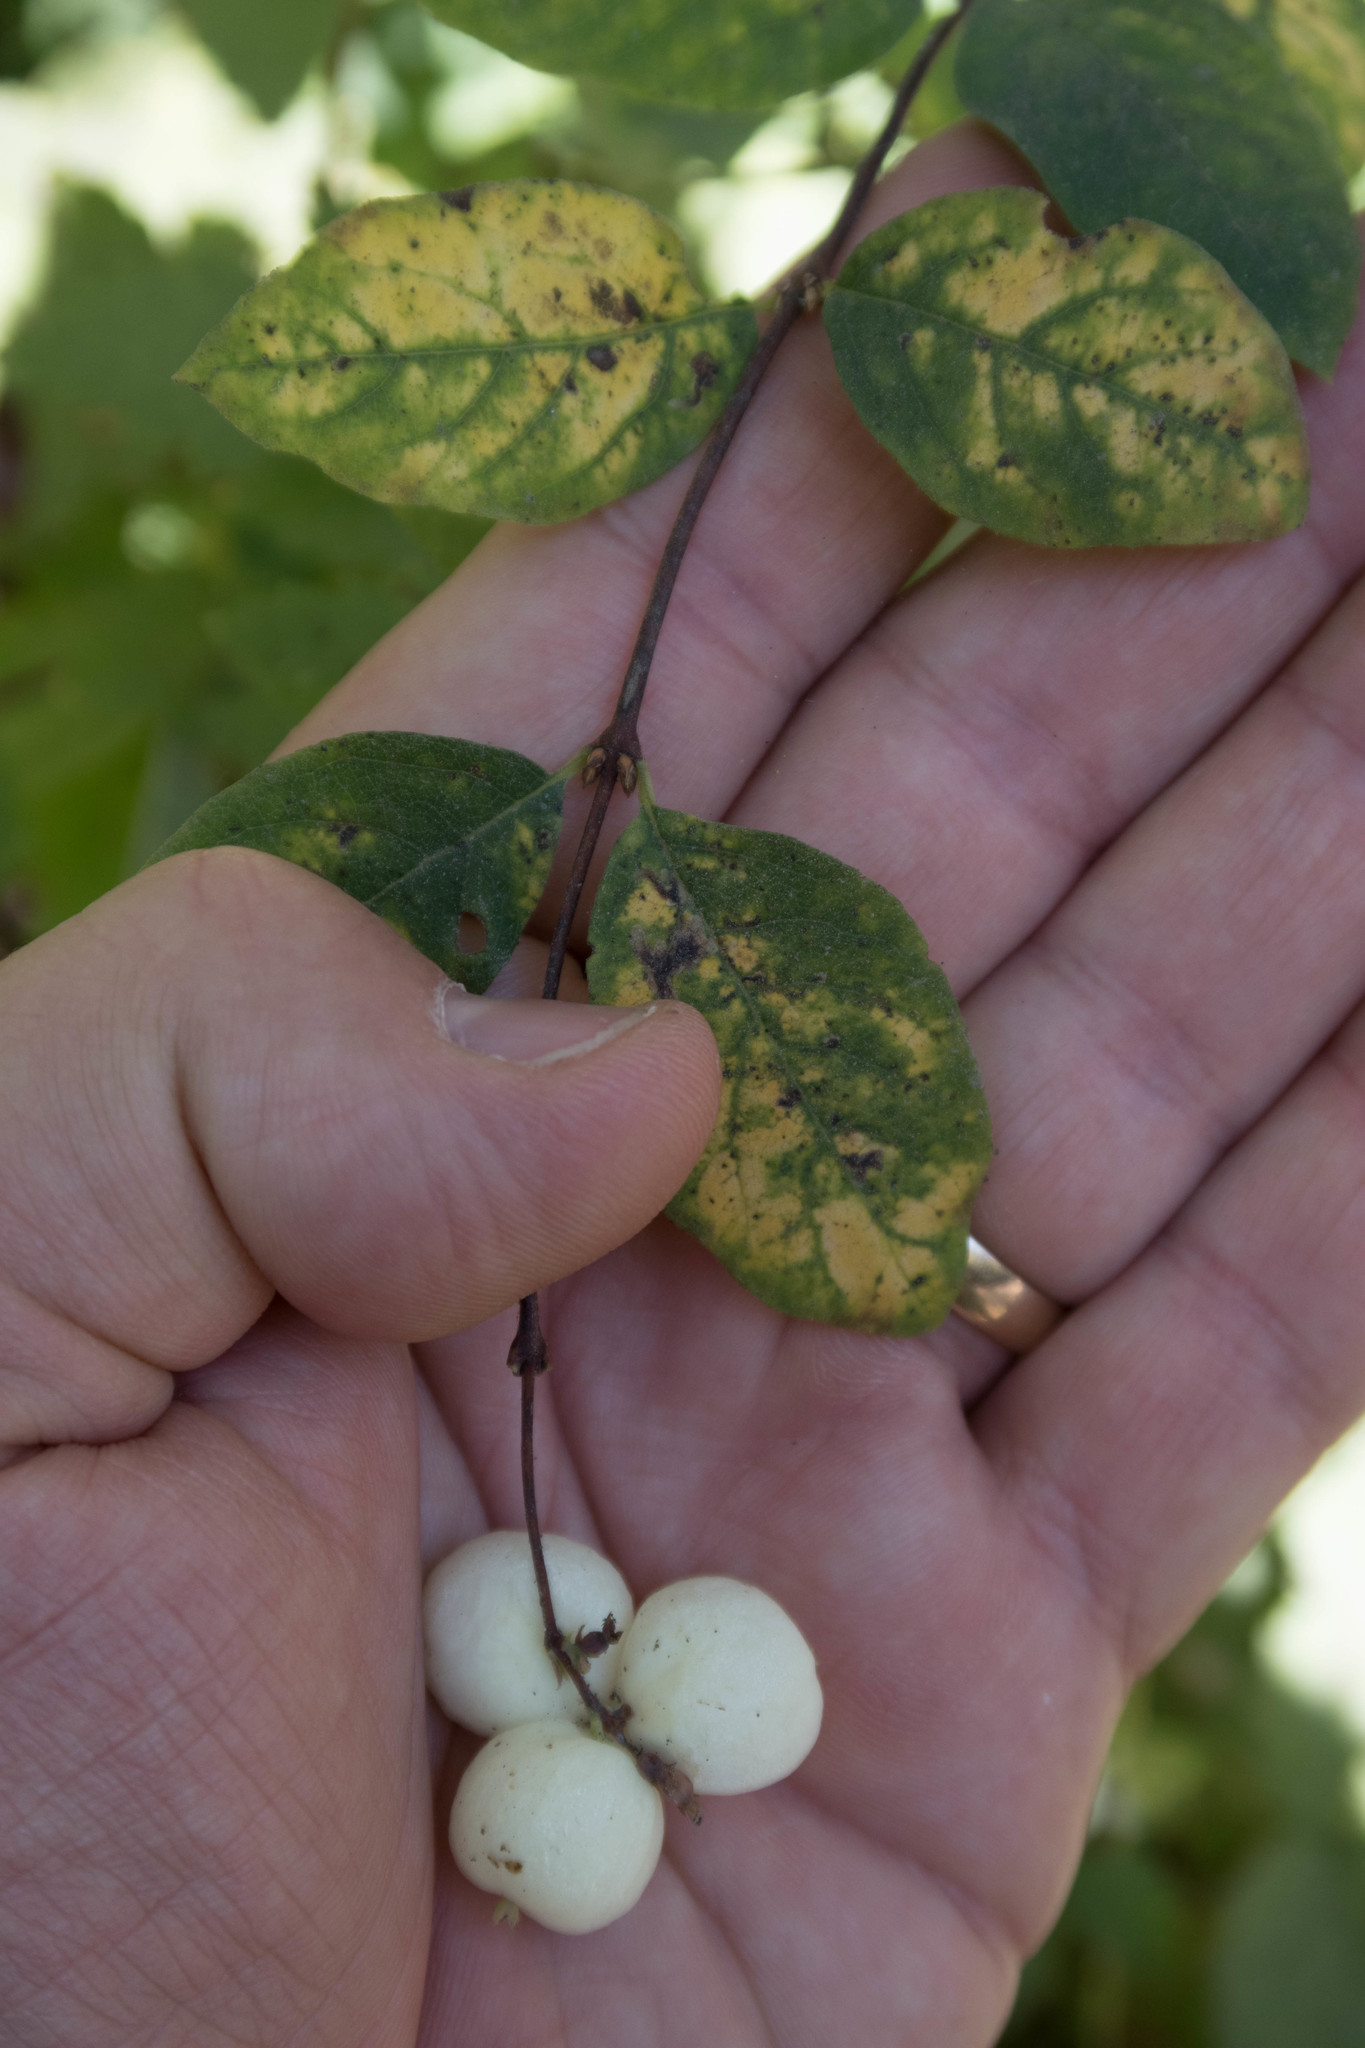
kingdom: Plantae
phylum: Tracheophyta
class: Magnoliopsida
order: Dipsacales
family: Caprifoliaceae
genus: Symphoricarpos
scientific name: Symphoricarpos albus
